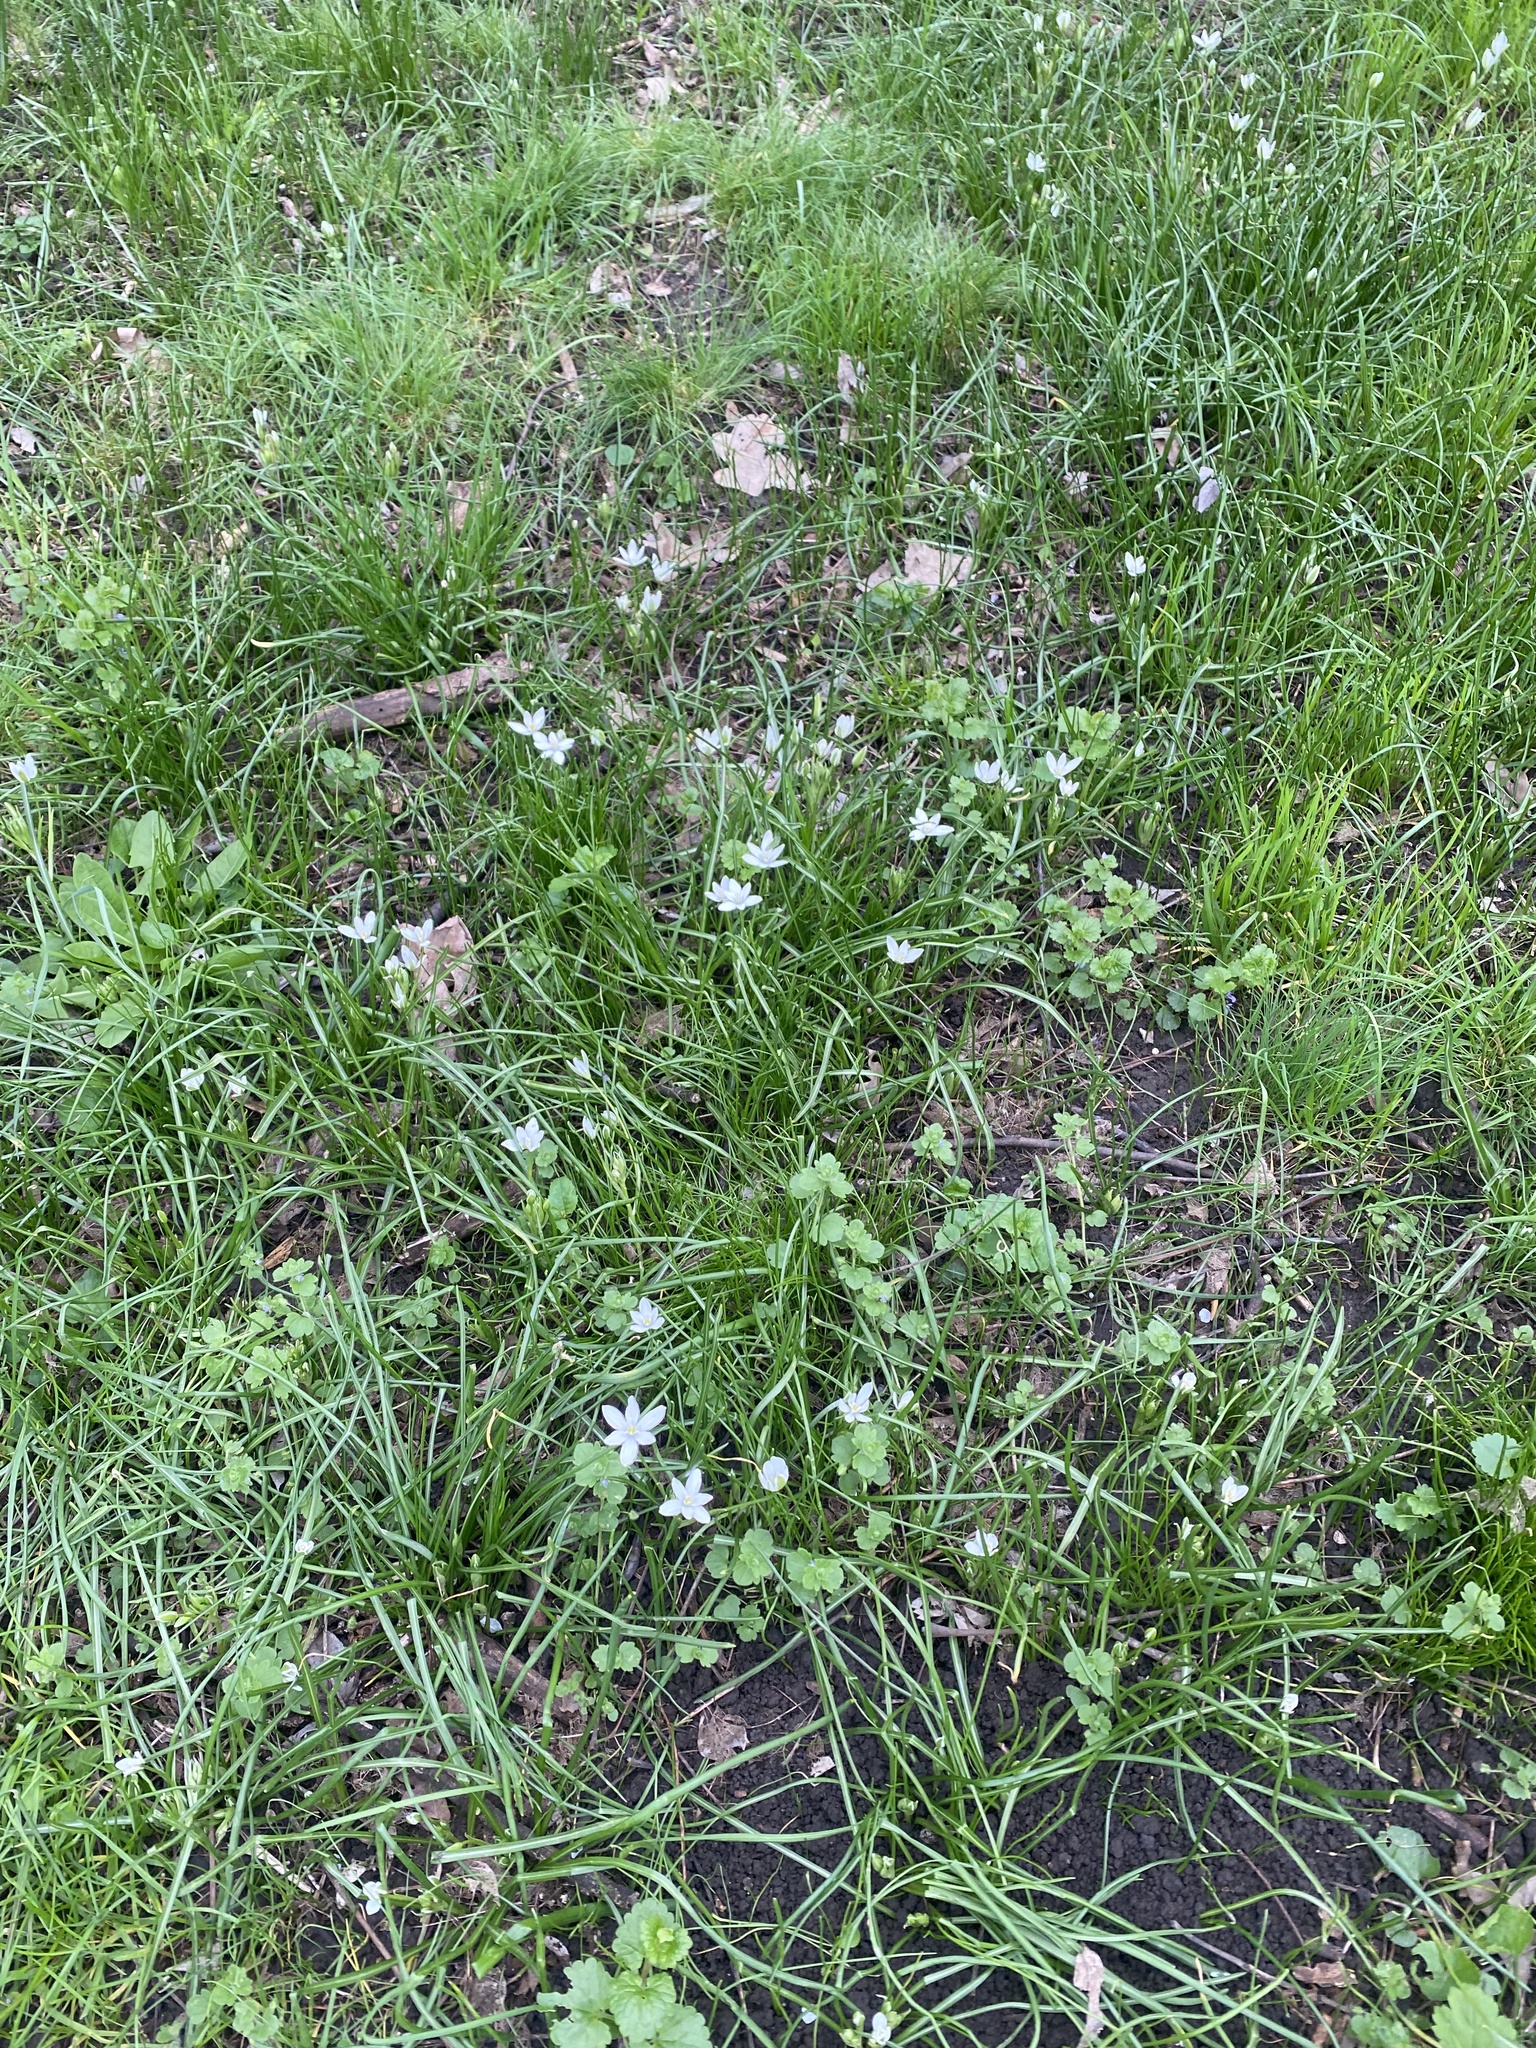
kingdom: Plantae
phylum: Tracheophyta
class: Liliopsida
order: Asparagales
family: Asparagaceae
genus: Ornithogalum
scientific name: Ornithogalum woronowii
